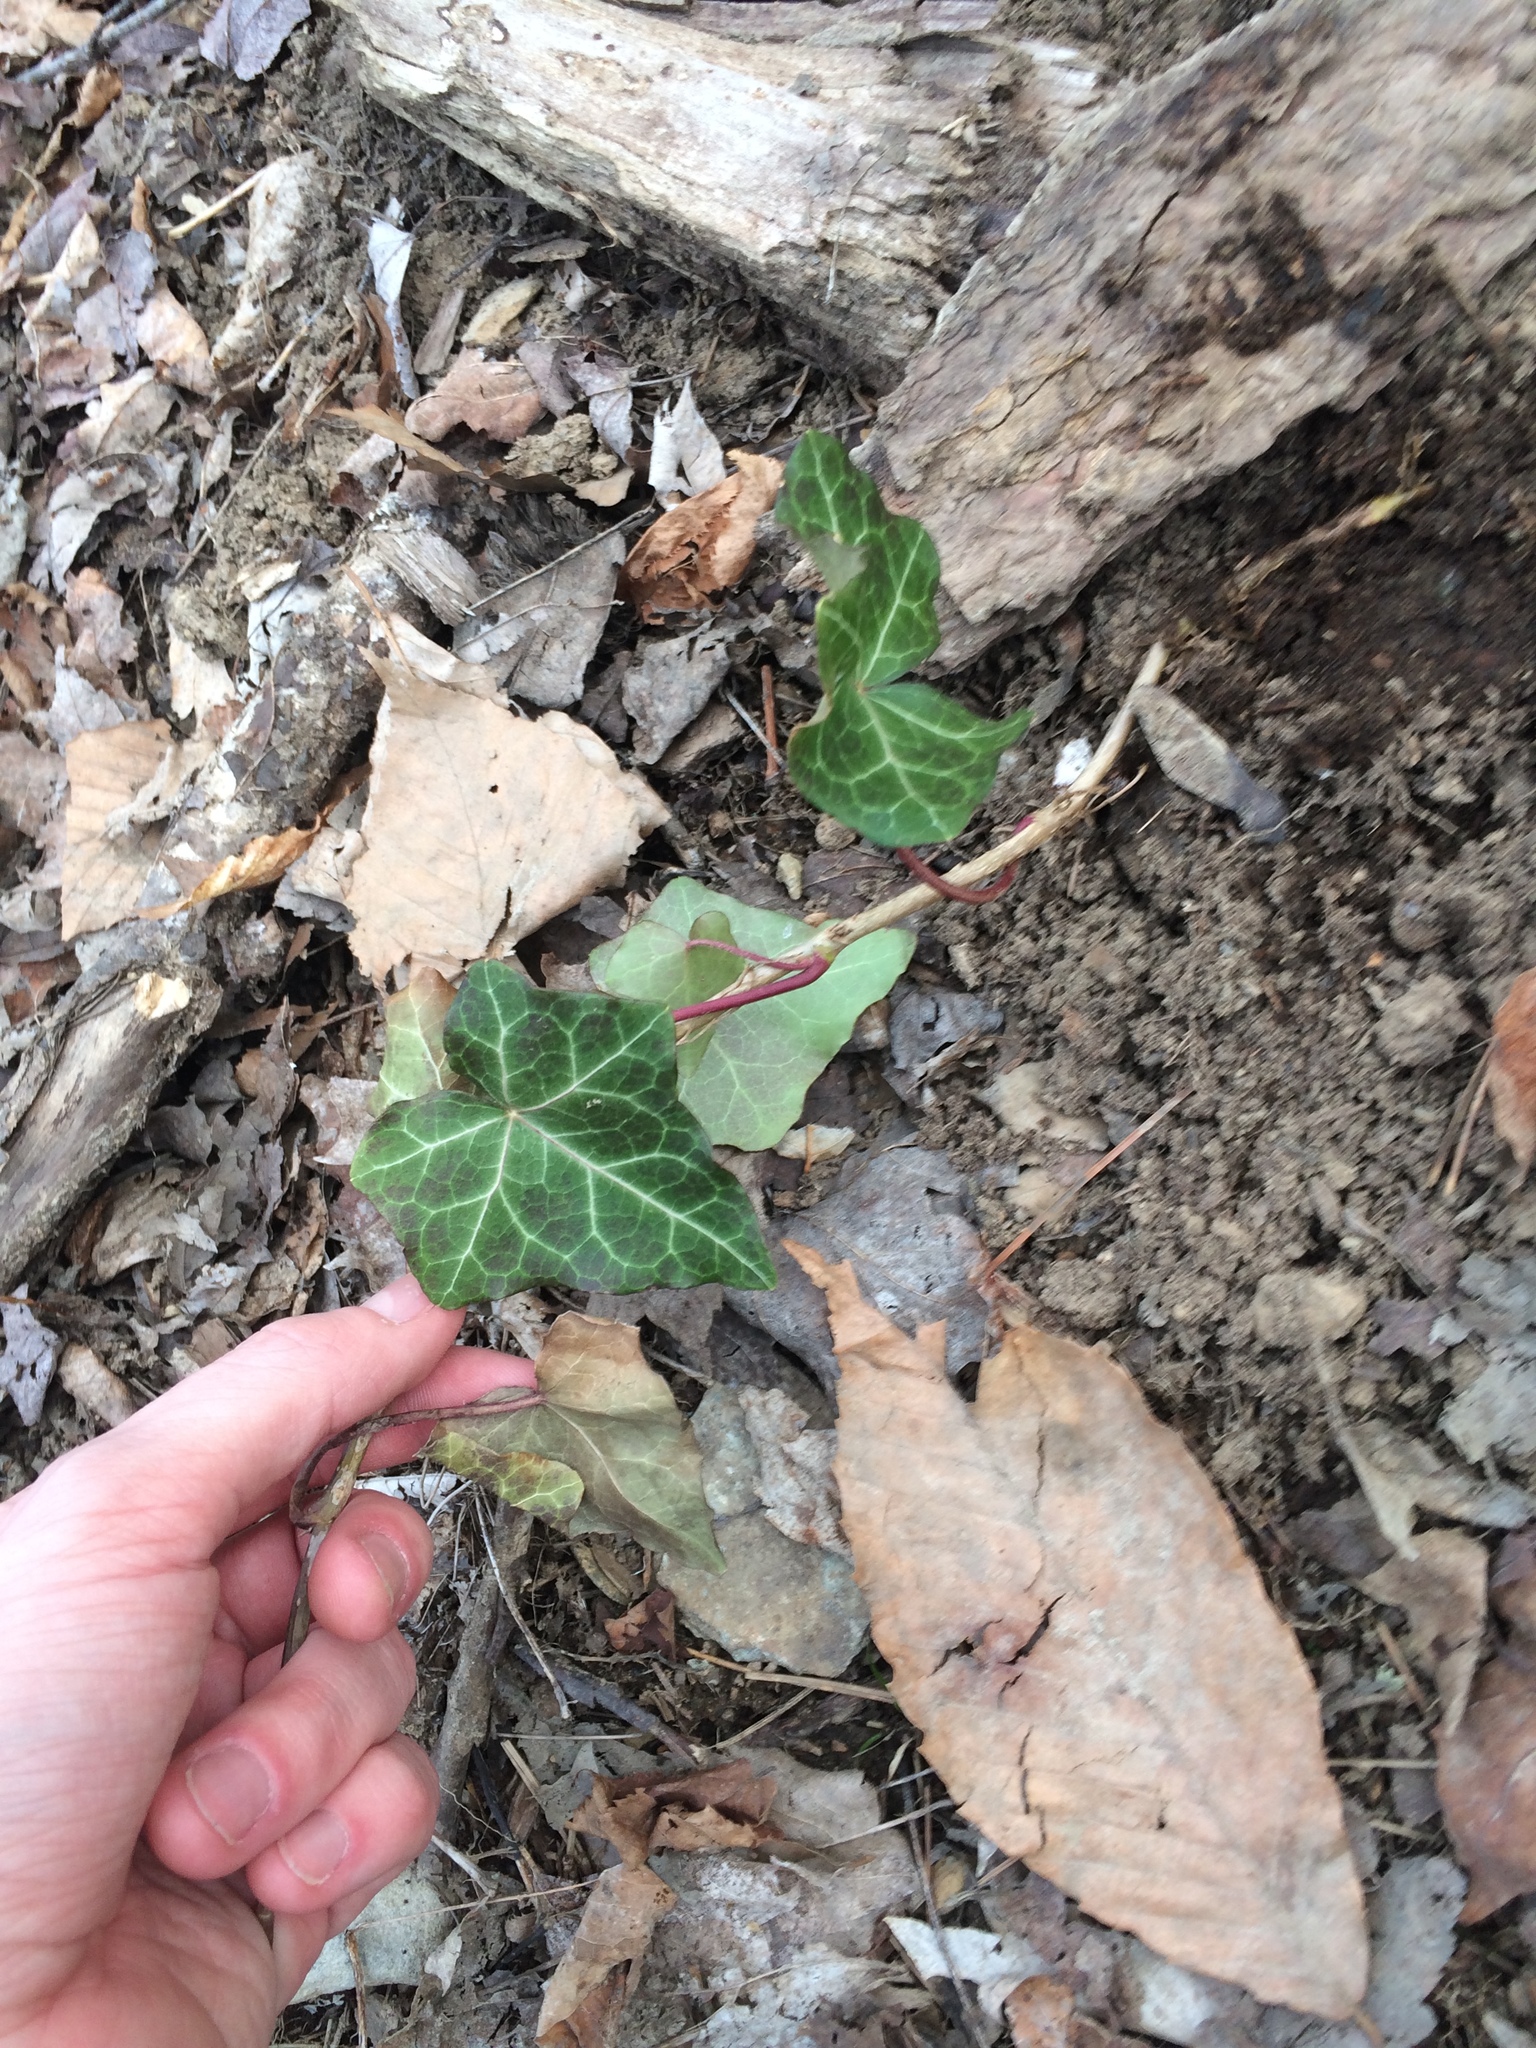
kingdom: Plantae
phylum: Tracheophyta
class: Magnoliopsida
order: Apiales
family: Araliaceae
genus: Hedera
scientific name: Hedera helix
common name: Ivy
